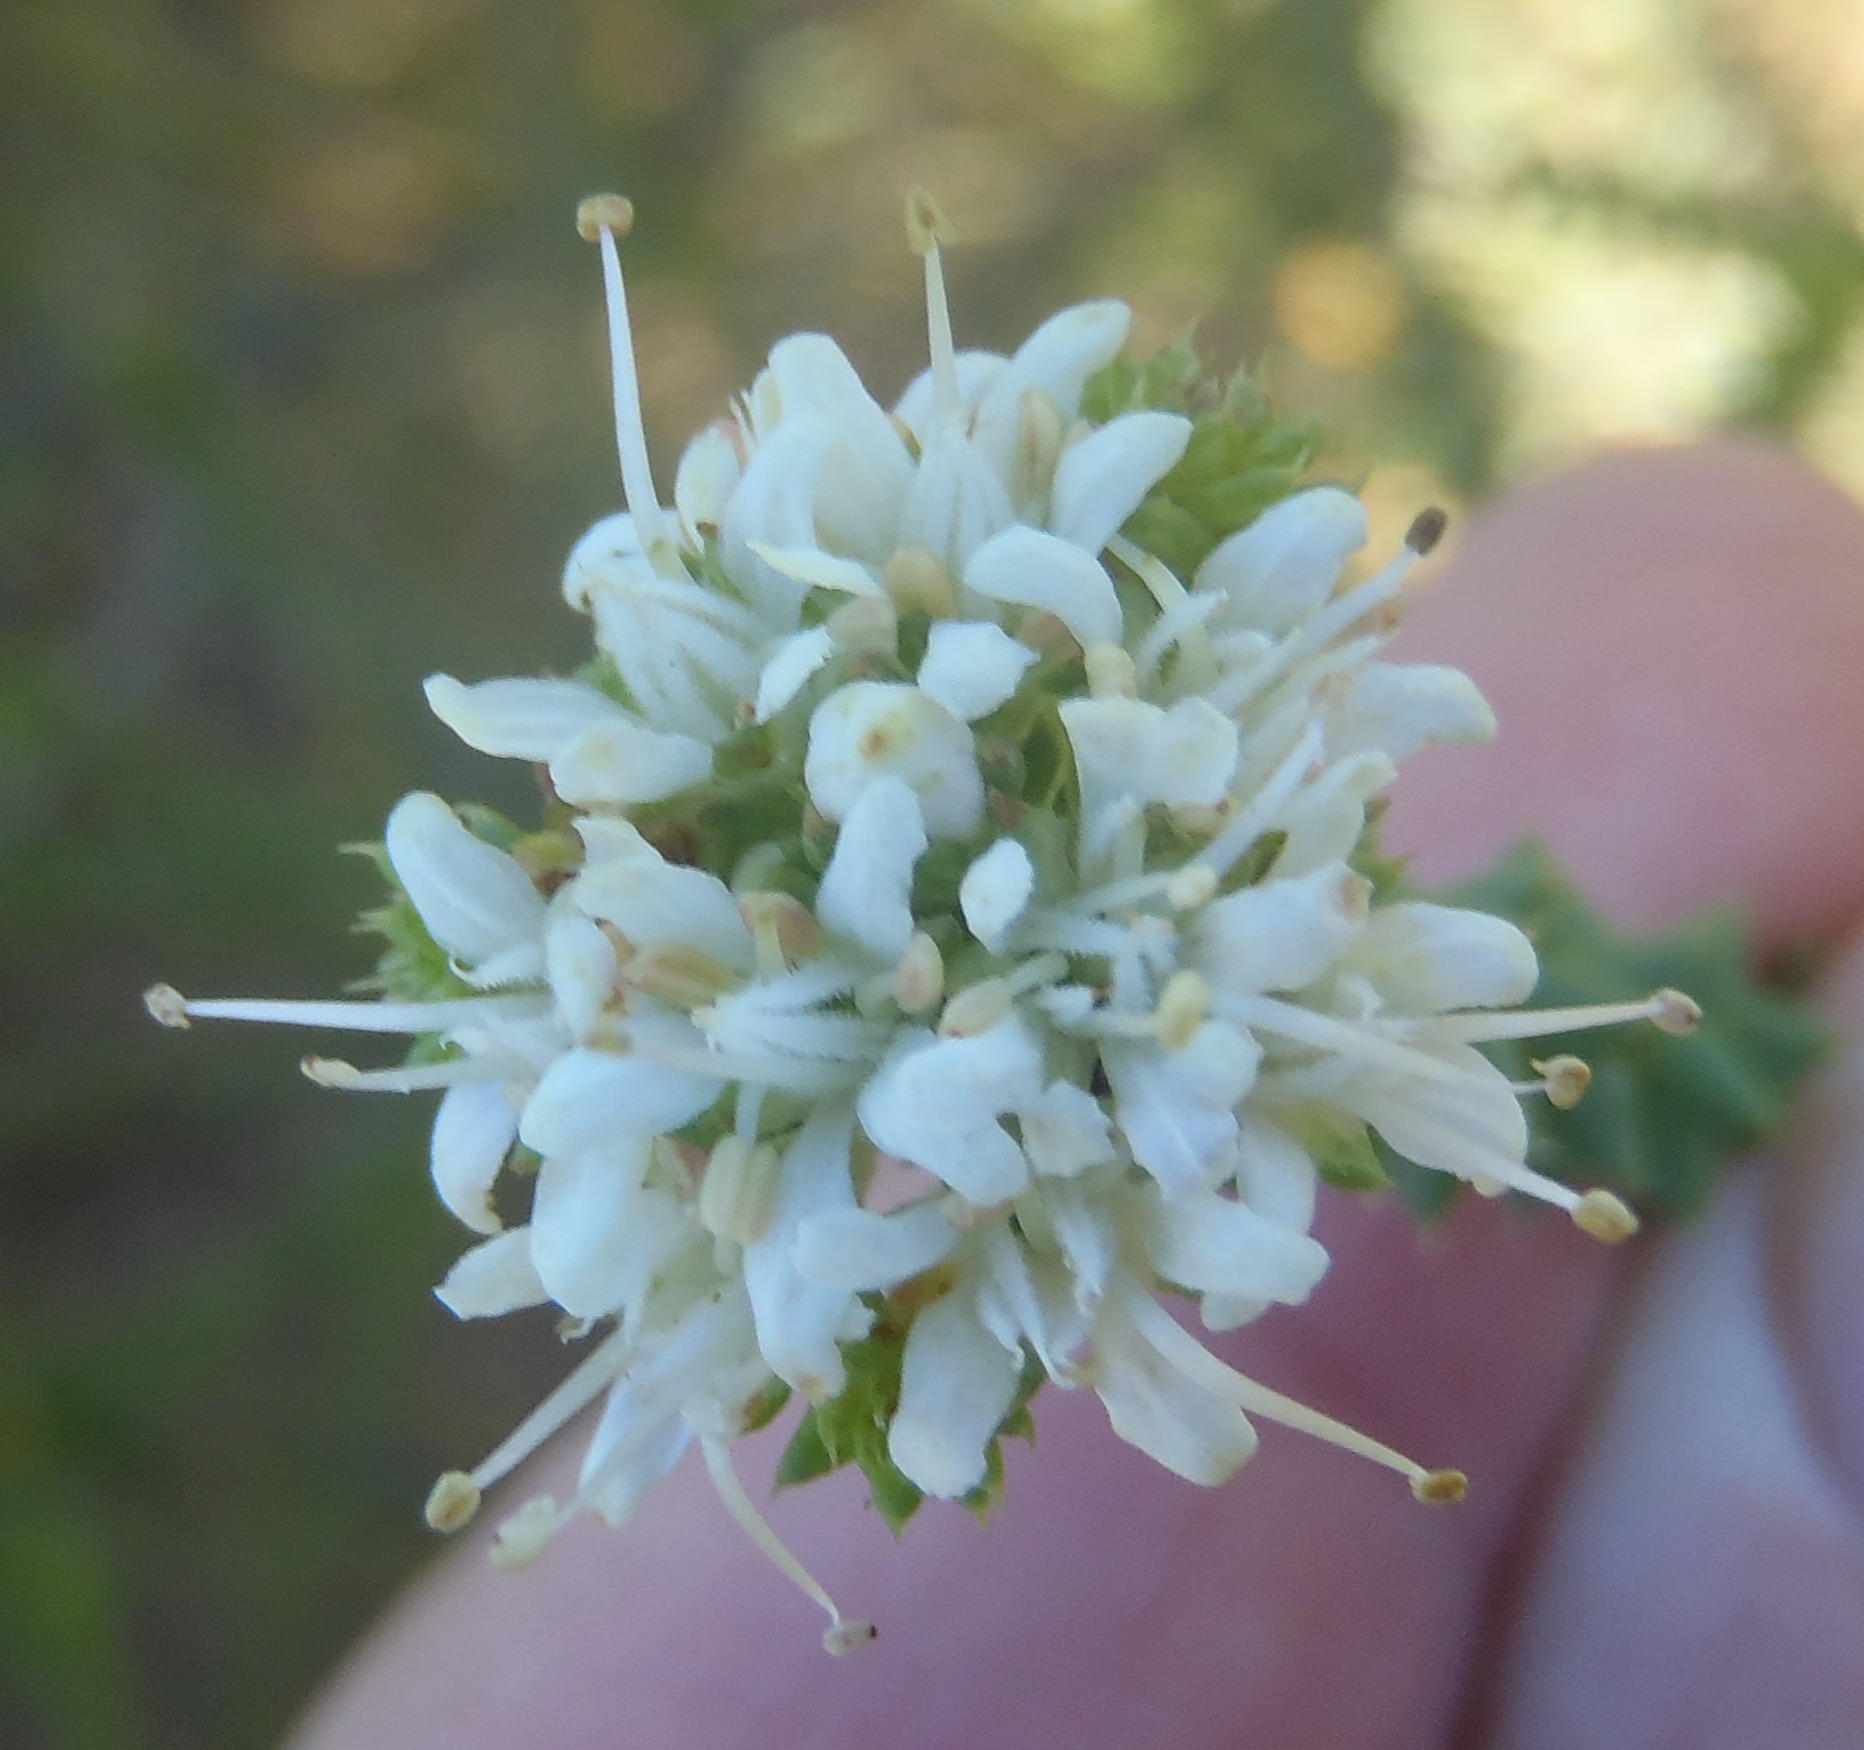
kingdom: Plantae
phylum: Tracheophyta
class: Magnoliopsida
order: Sapindales
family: Rutaceae
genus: Agathosma
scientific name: Agathosma apiculata
